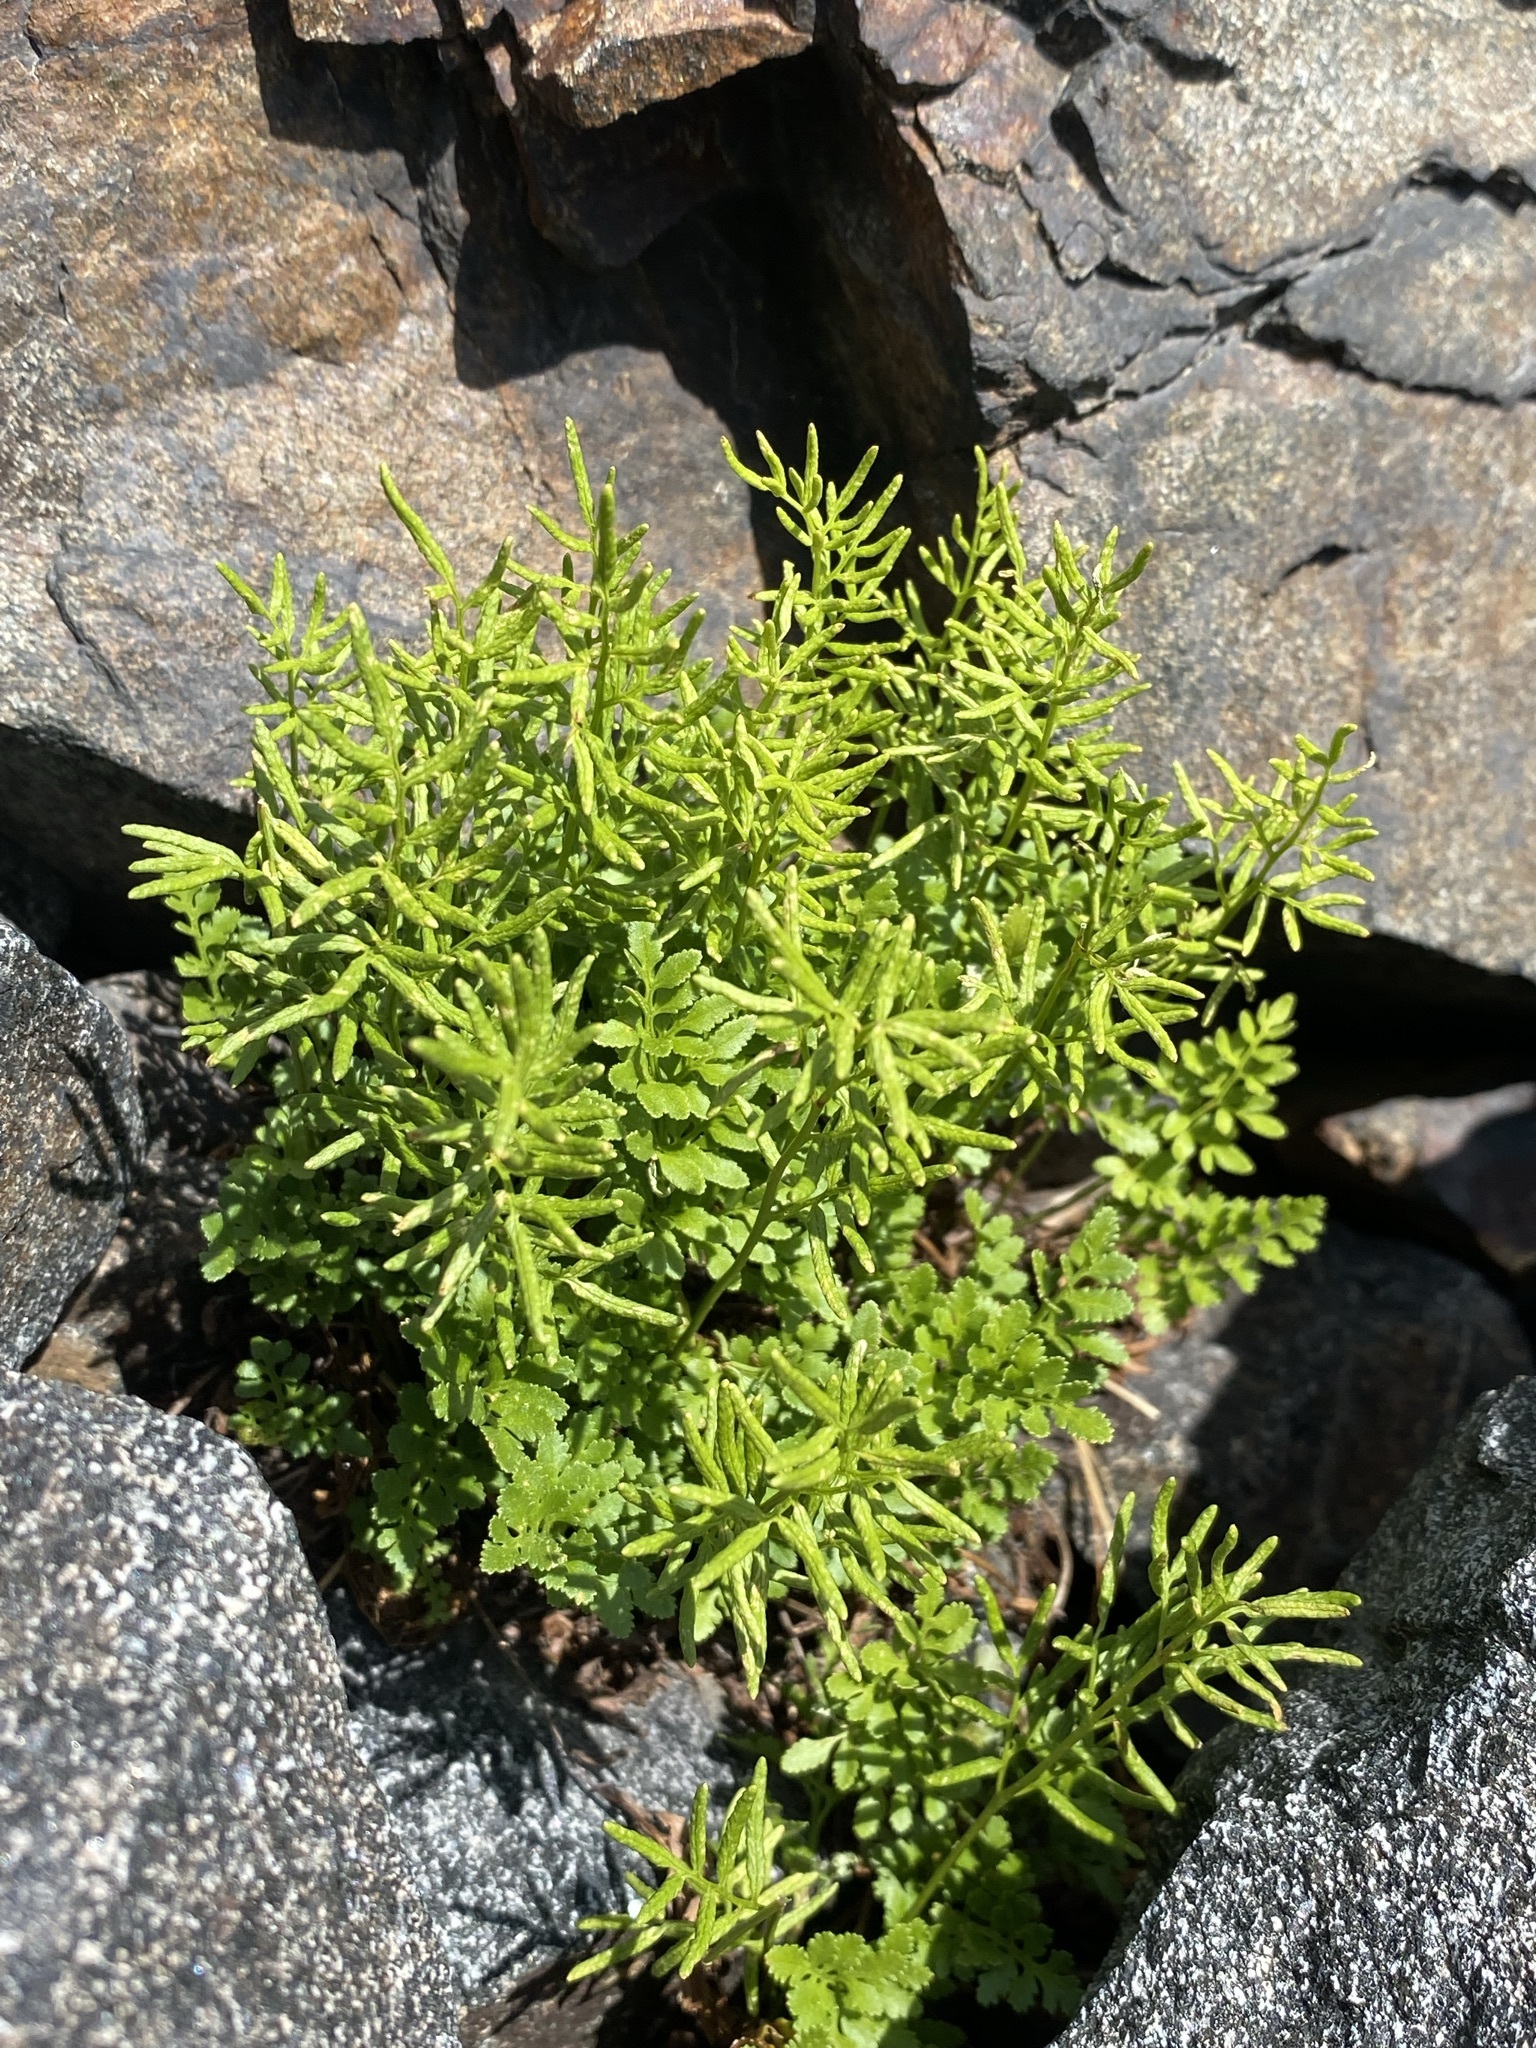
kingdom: Plantae
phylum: Tracheophyta
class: Polypodiopsida
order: Polypodiales
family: Pteridaceae
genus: Cryptogramma
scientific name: Cryptogramma acrostichoides
